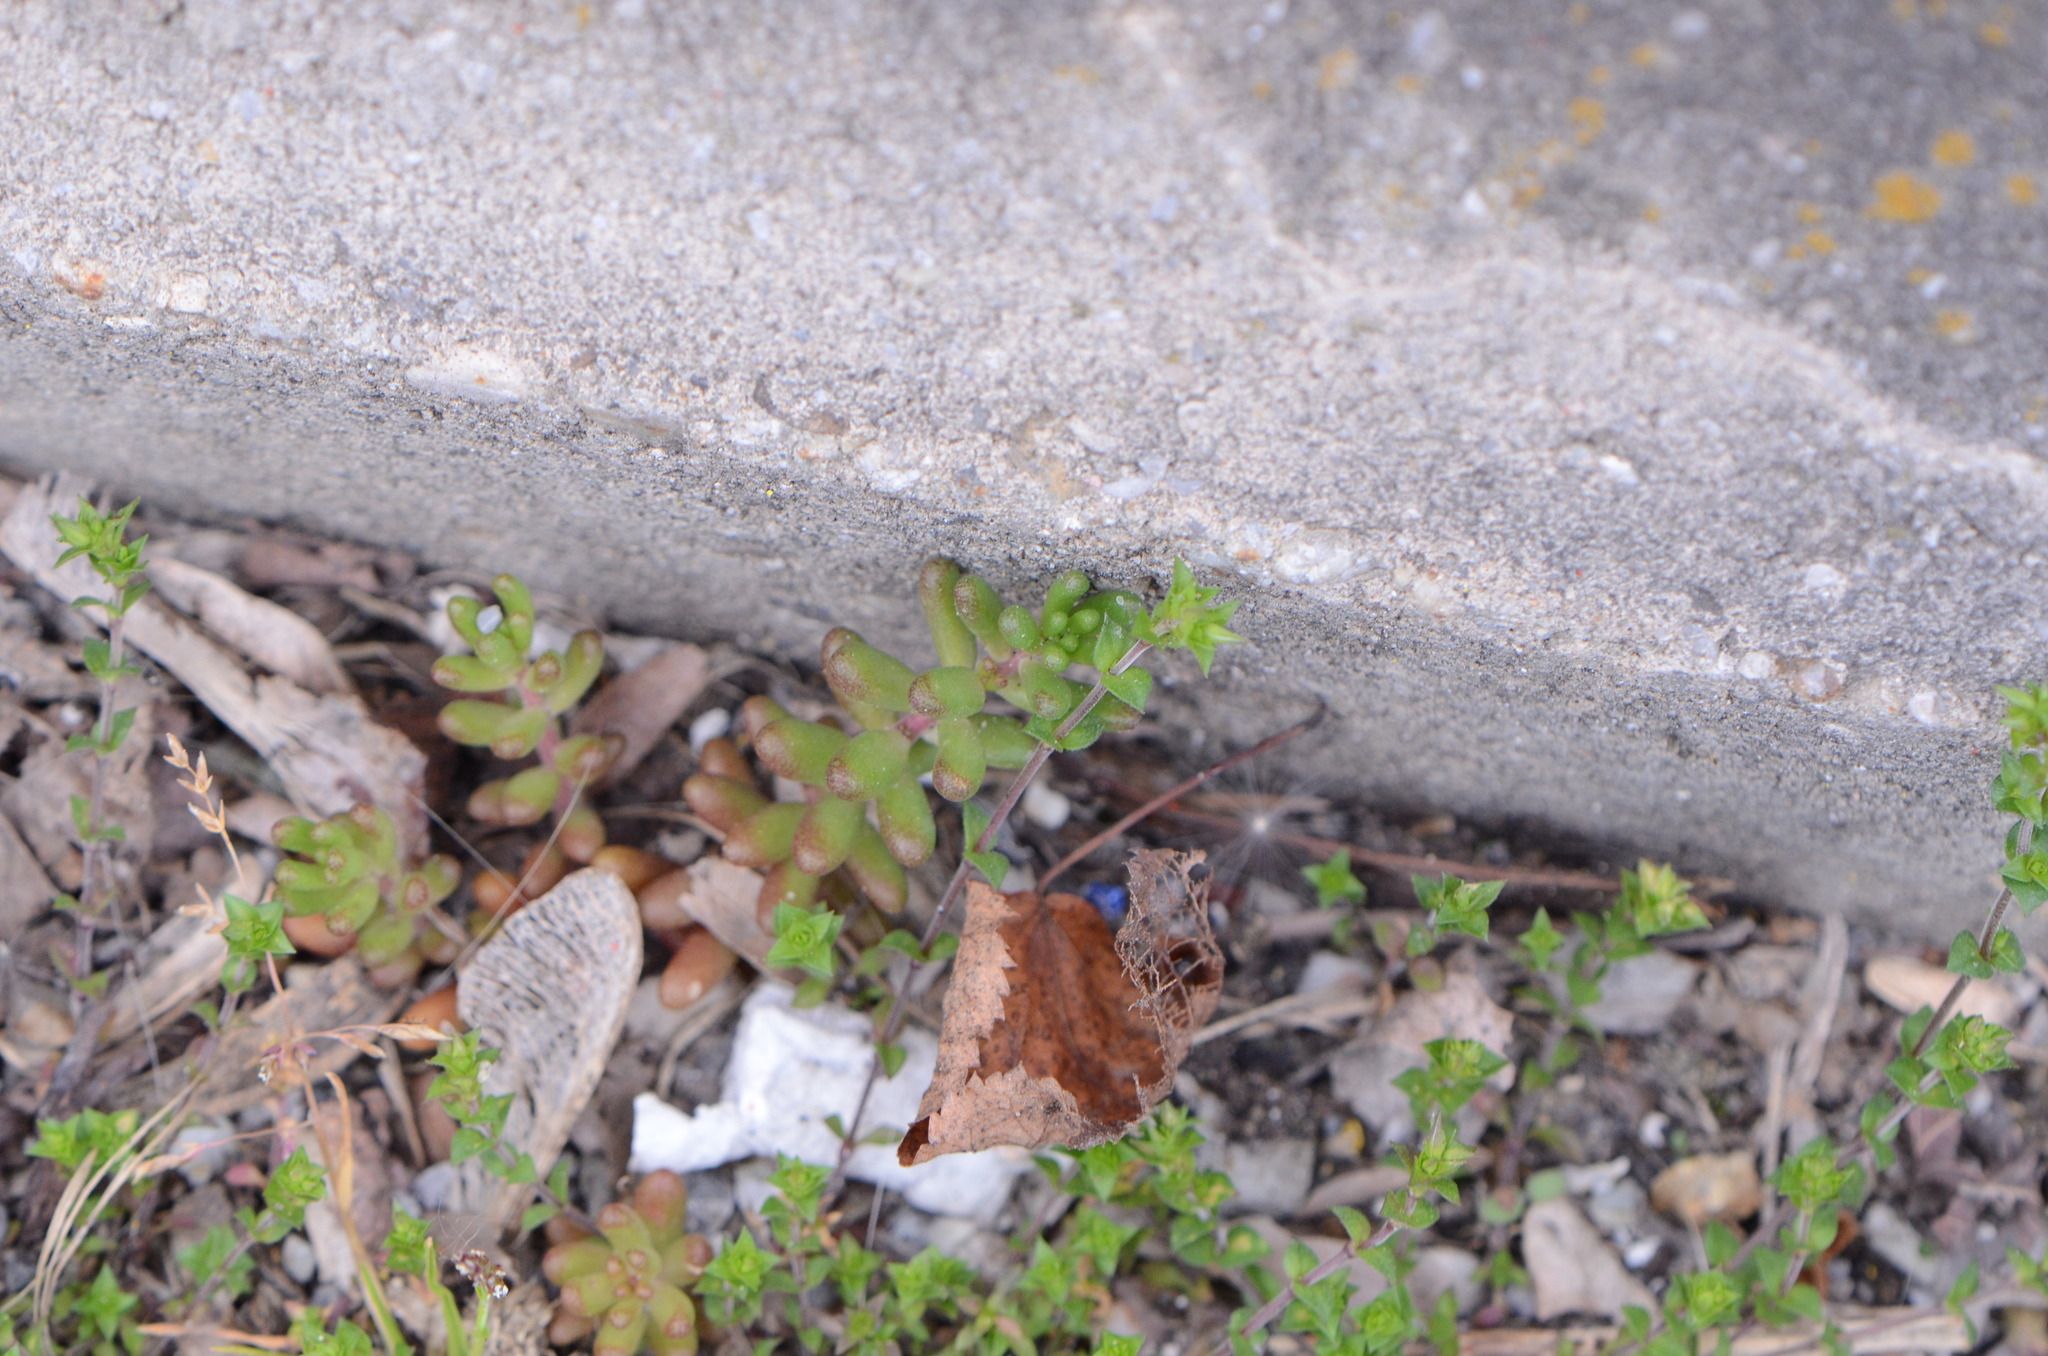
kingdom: Plantae
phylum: Tracheophyta
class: Magnoliopsida
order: Saxifragales
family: Crassulaceae
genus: Sedum
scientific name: Sedum album
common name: White stonecrop
